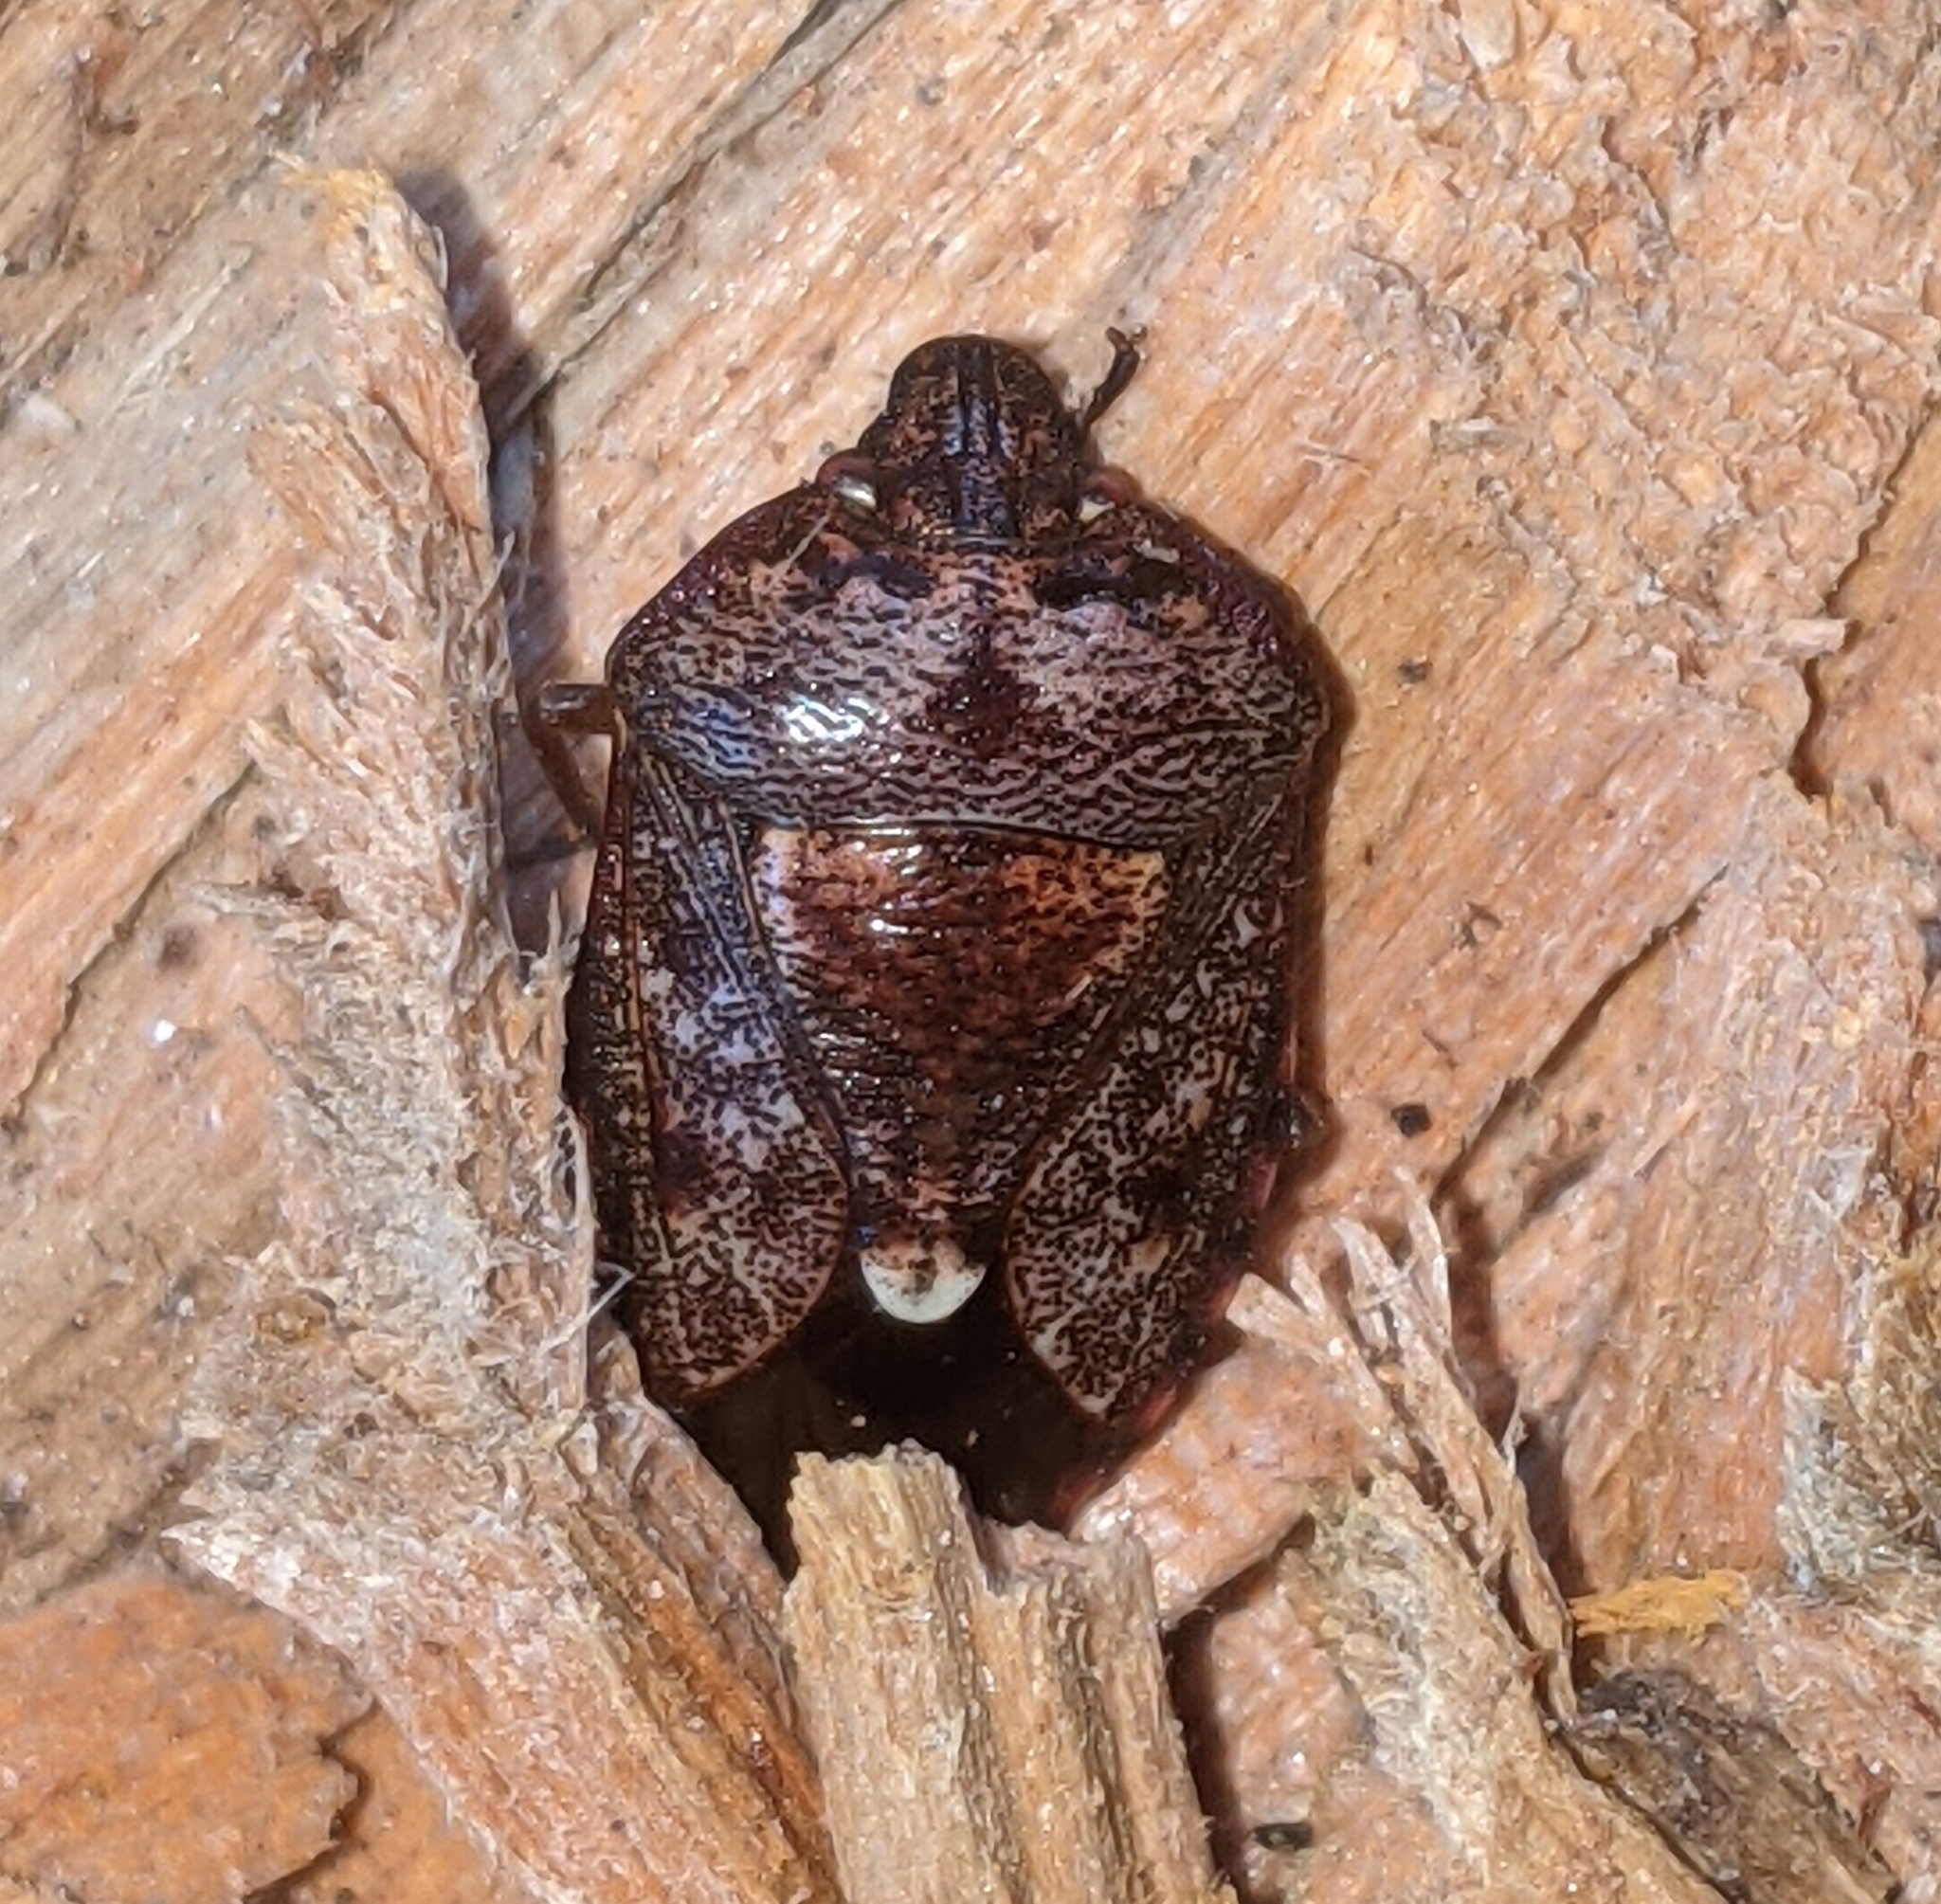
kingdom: Animalia
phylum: Arthropoda
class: Insecta
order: Hemiptera
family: Pentatomidae
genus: Banasa
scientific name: Banasa sordida
